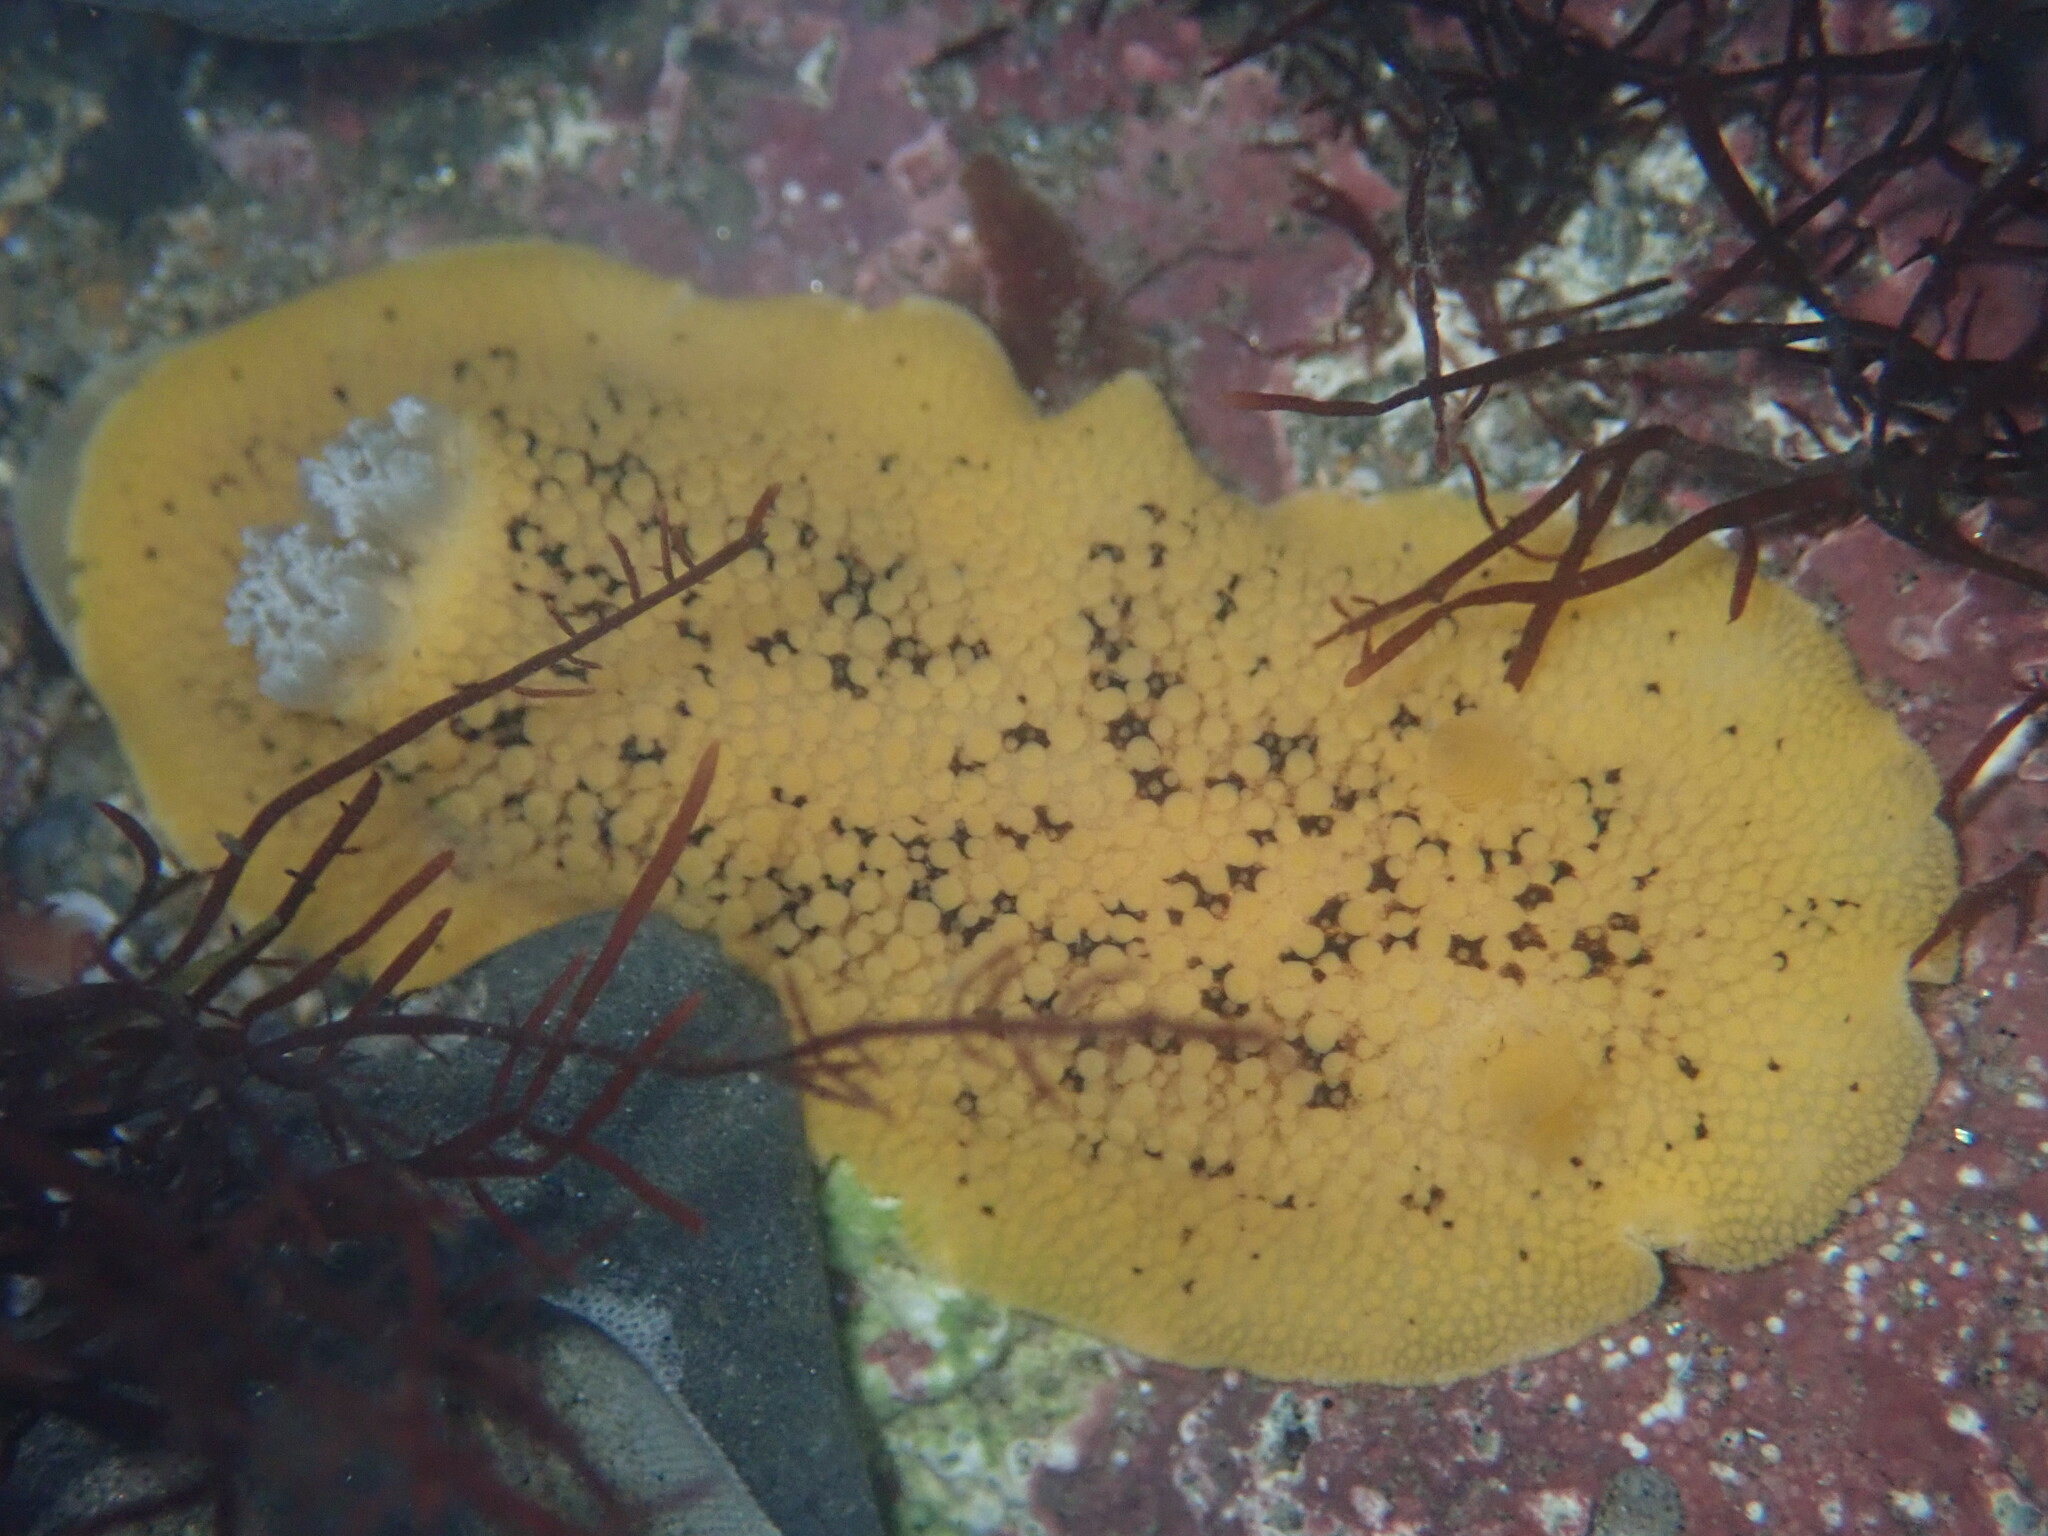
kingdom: Animalia
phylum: Mollusca
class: Gastropoda
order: Nudibranchia
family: Discodorididae
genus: Peltodoris
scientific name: Peltodoris nobilis
